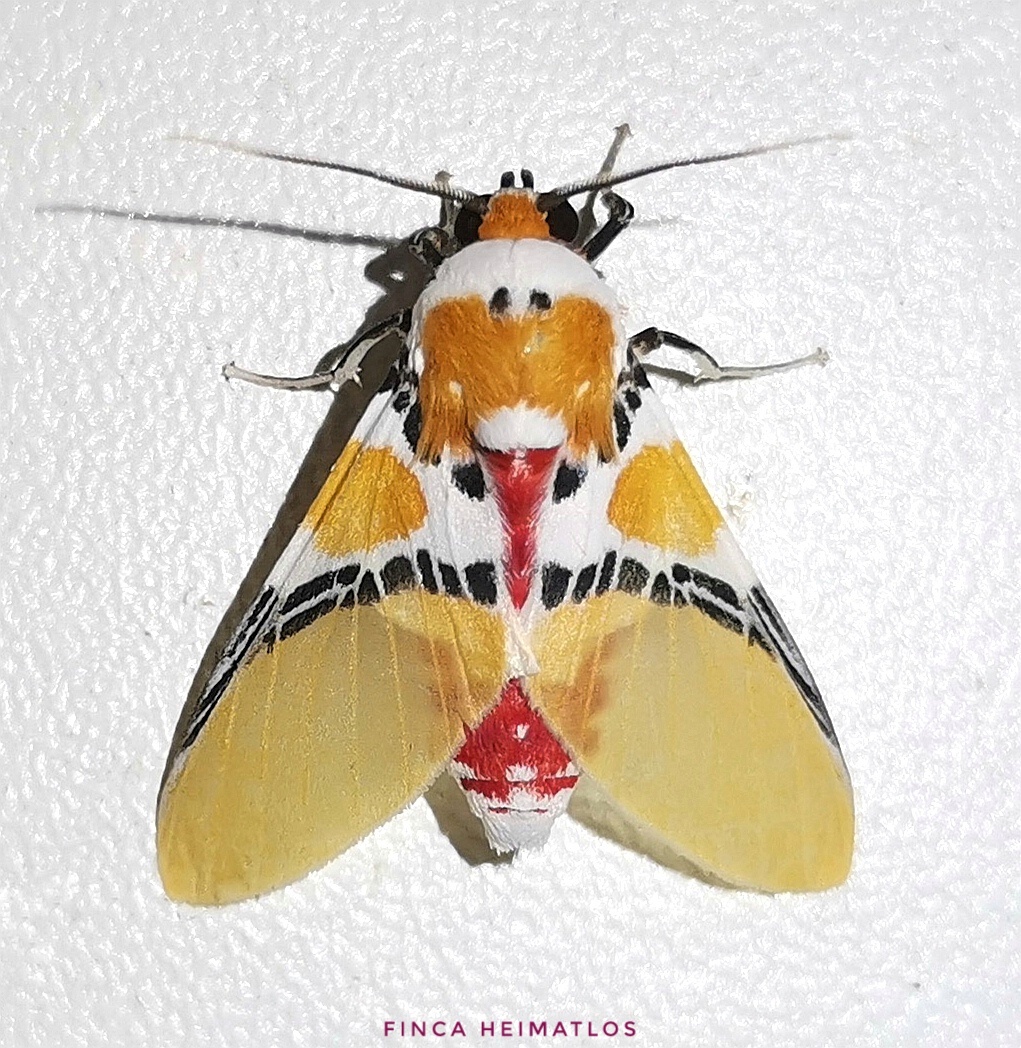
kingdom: Animalia
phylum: Arthropoda
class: Insecta
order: Lepidoptera
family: Erebidae
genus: Idalus
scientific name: Idalus critheis
